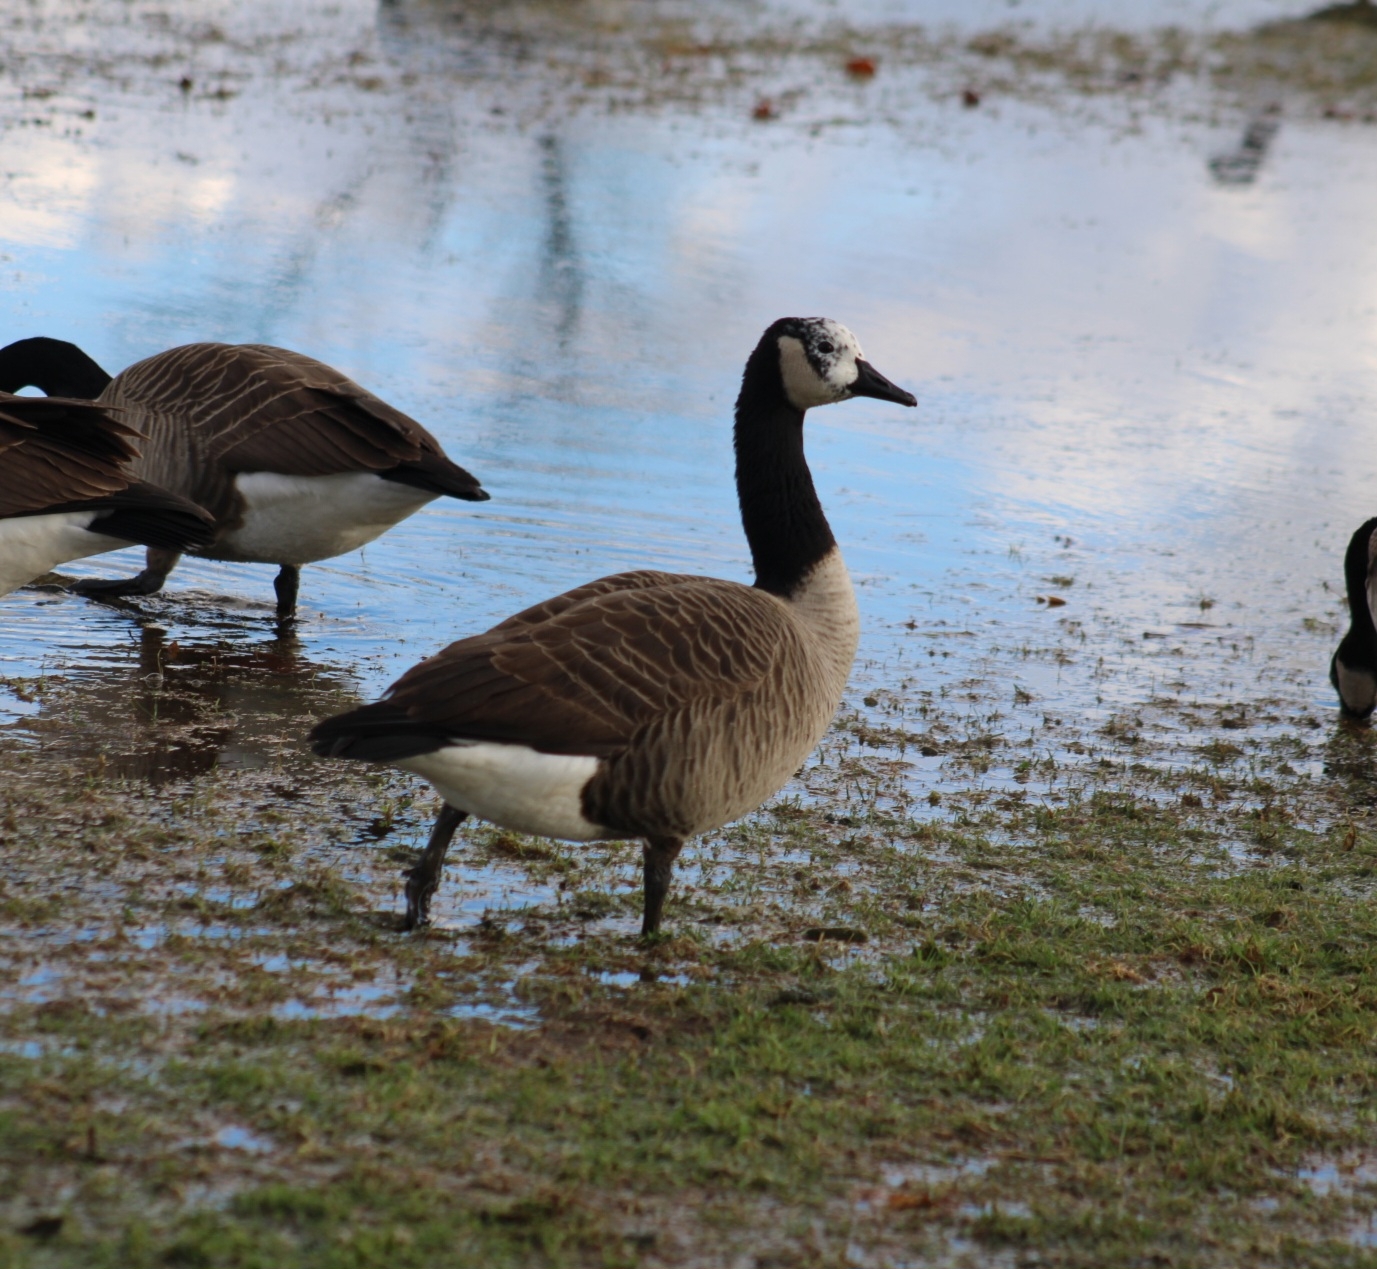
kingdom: Animalia
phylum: Chordata
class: Aves
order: Anseriformes
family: Anatidae
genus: Branta
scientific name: Branta canadensis
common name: Canada goose
